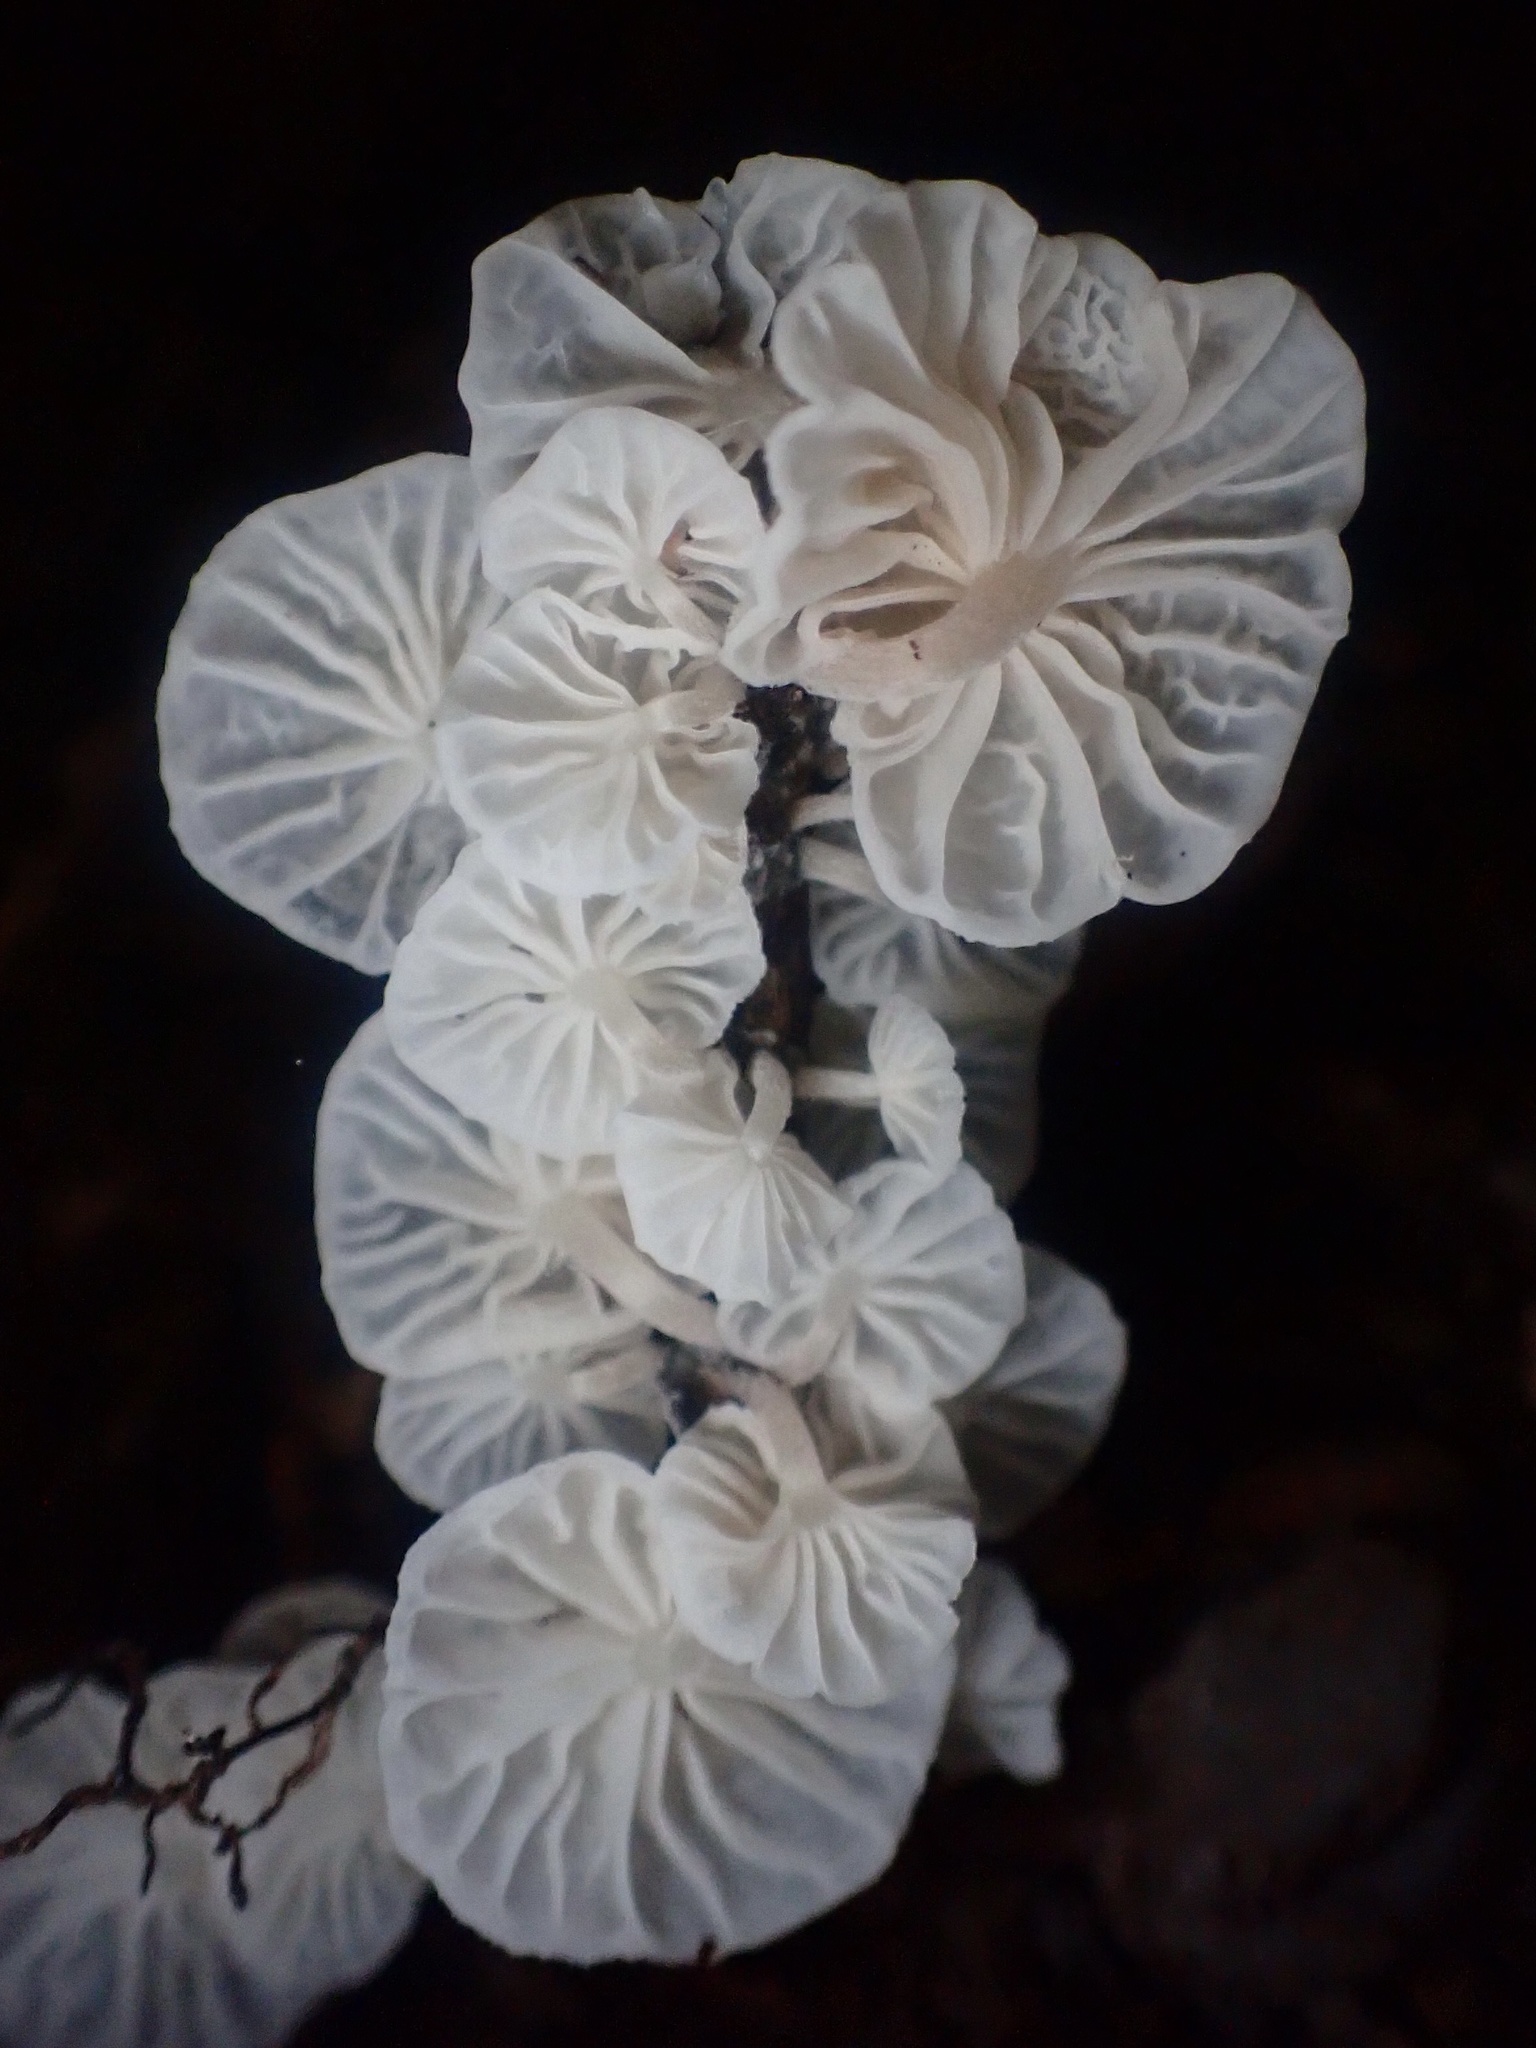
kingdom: Fungi
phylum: Basidiomycota
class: Agaricomycetes
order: Agaricales
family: Omphalotaceae
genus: Marasmiellus
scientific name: Marasmiellus candidus
